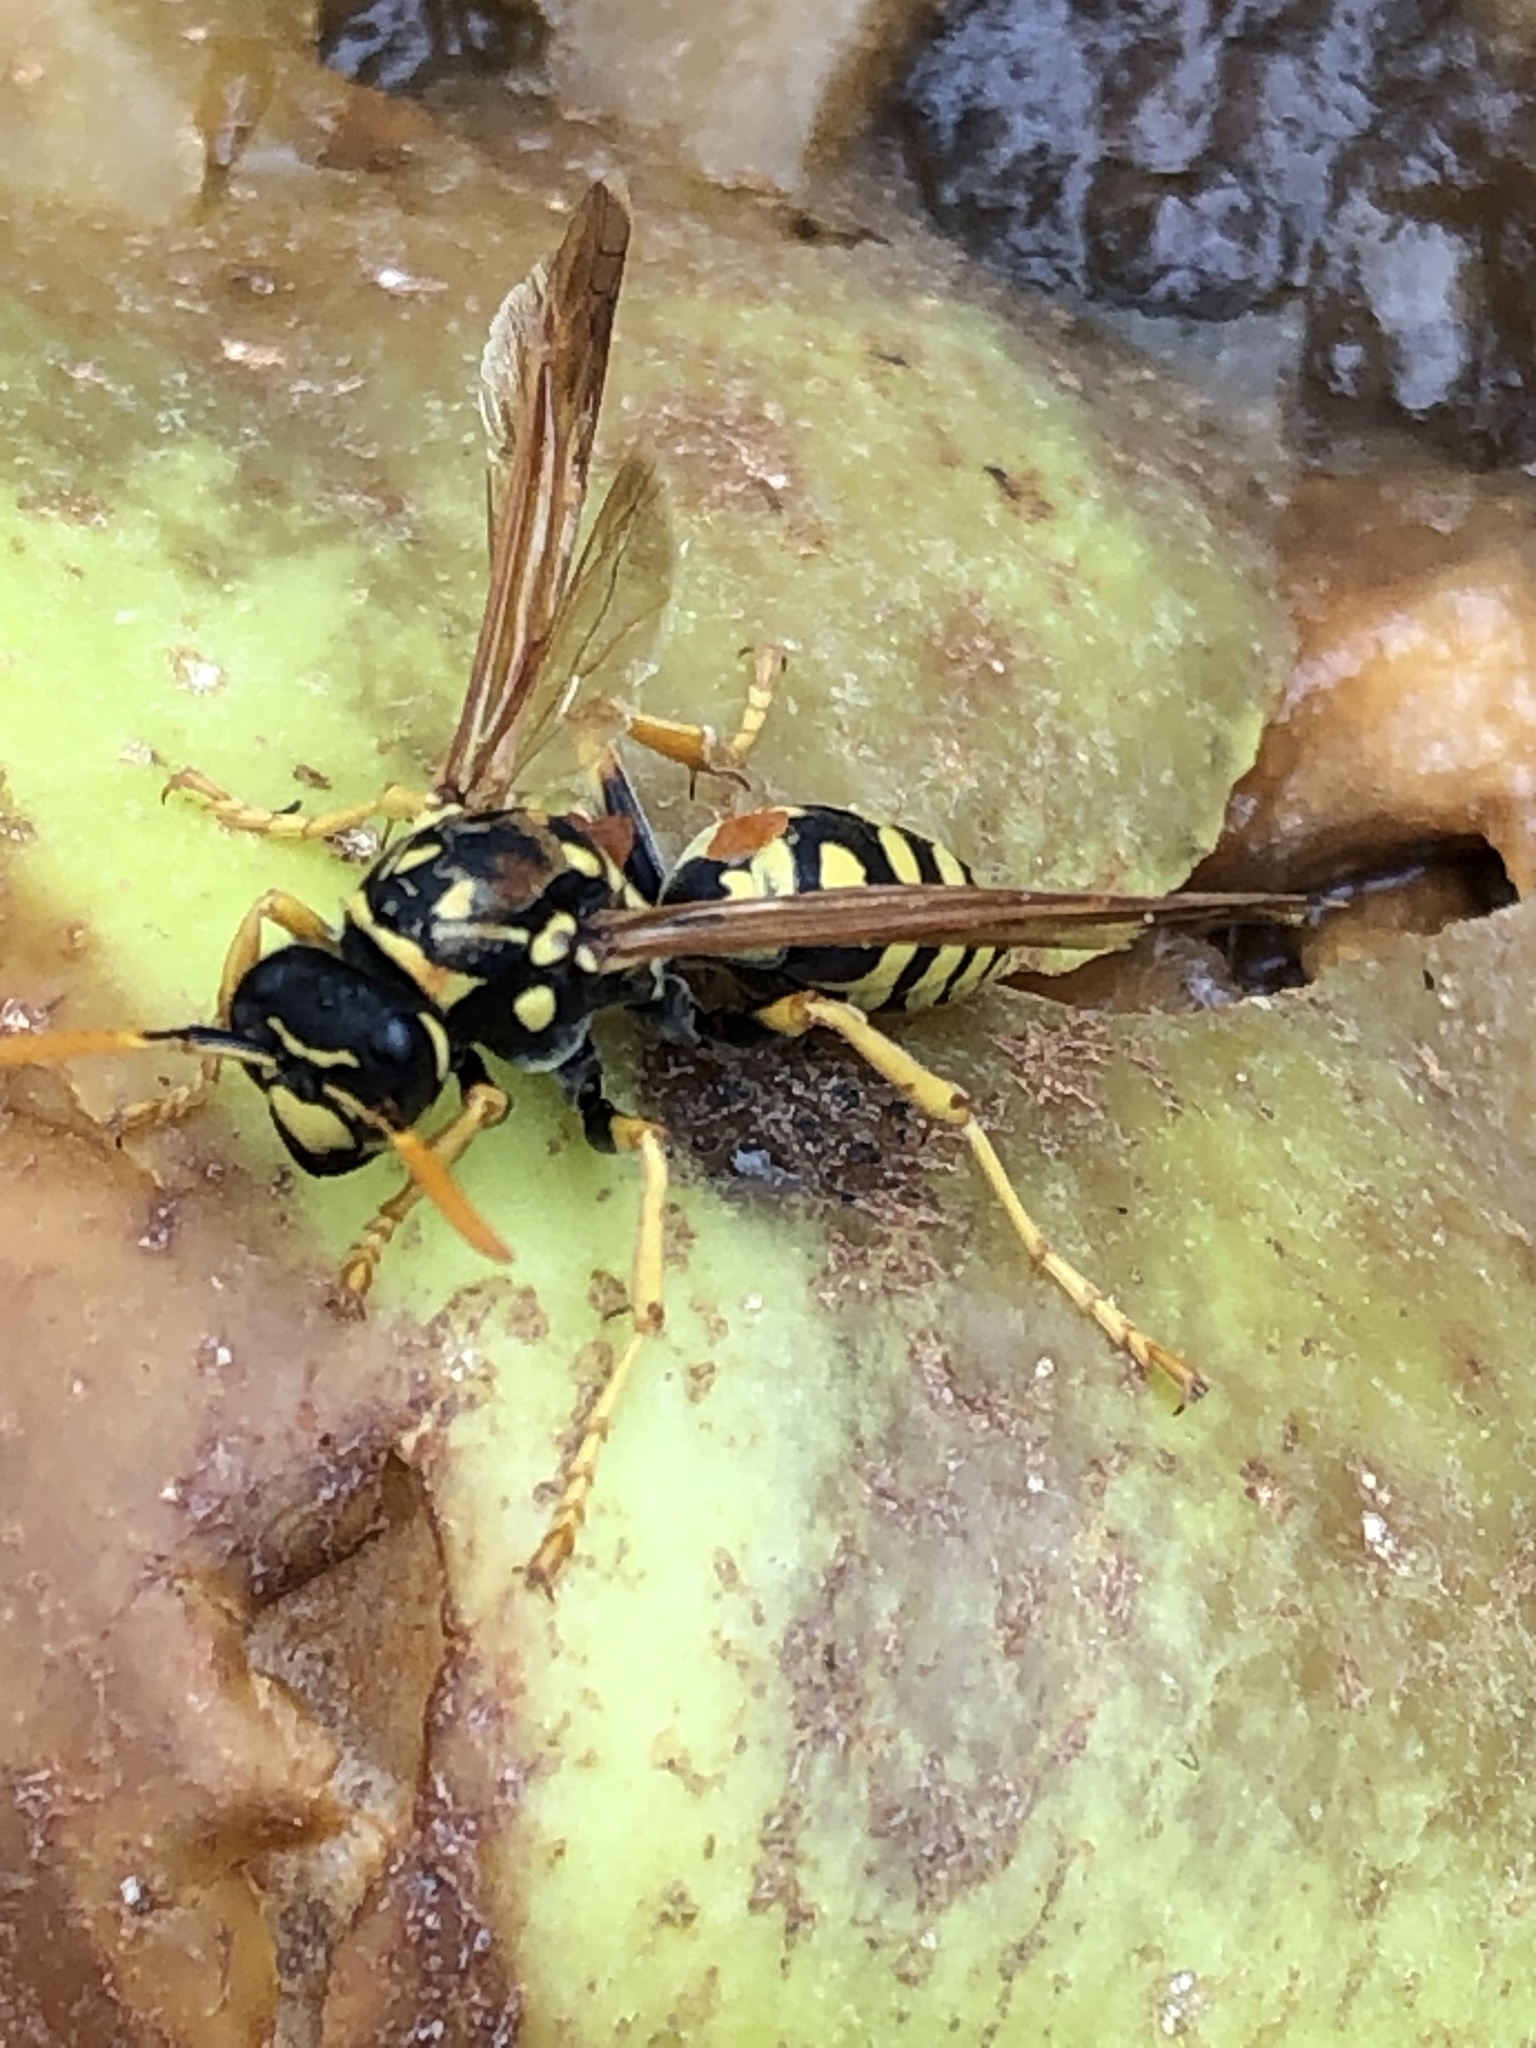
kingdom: Animalia
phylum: Arthropoda
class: Insecta
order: Hymenoptera
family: Eumenidae
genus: Polistes
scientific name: Polistes dominula
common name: Paper wasp
